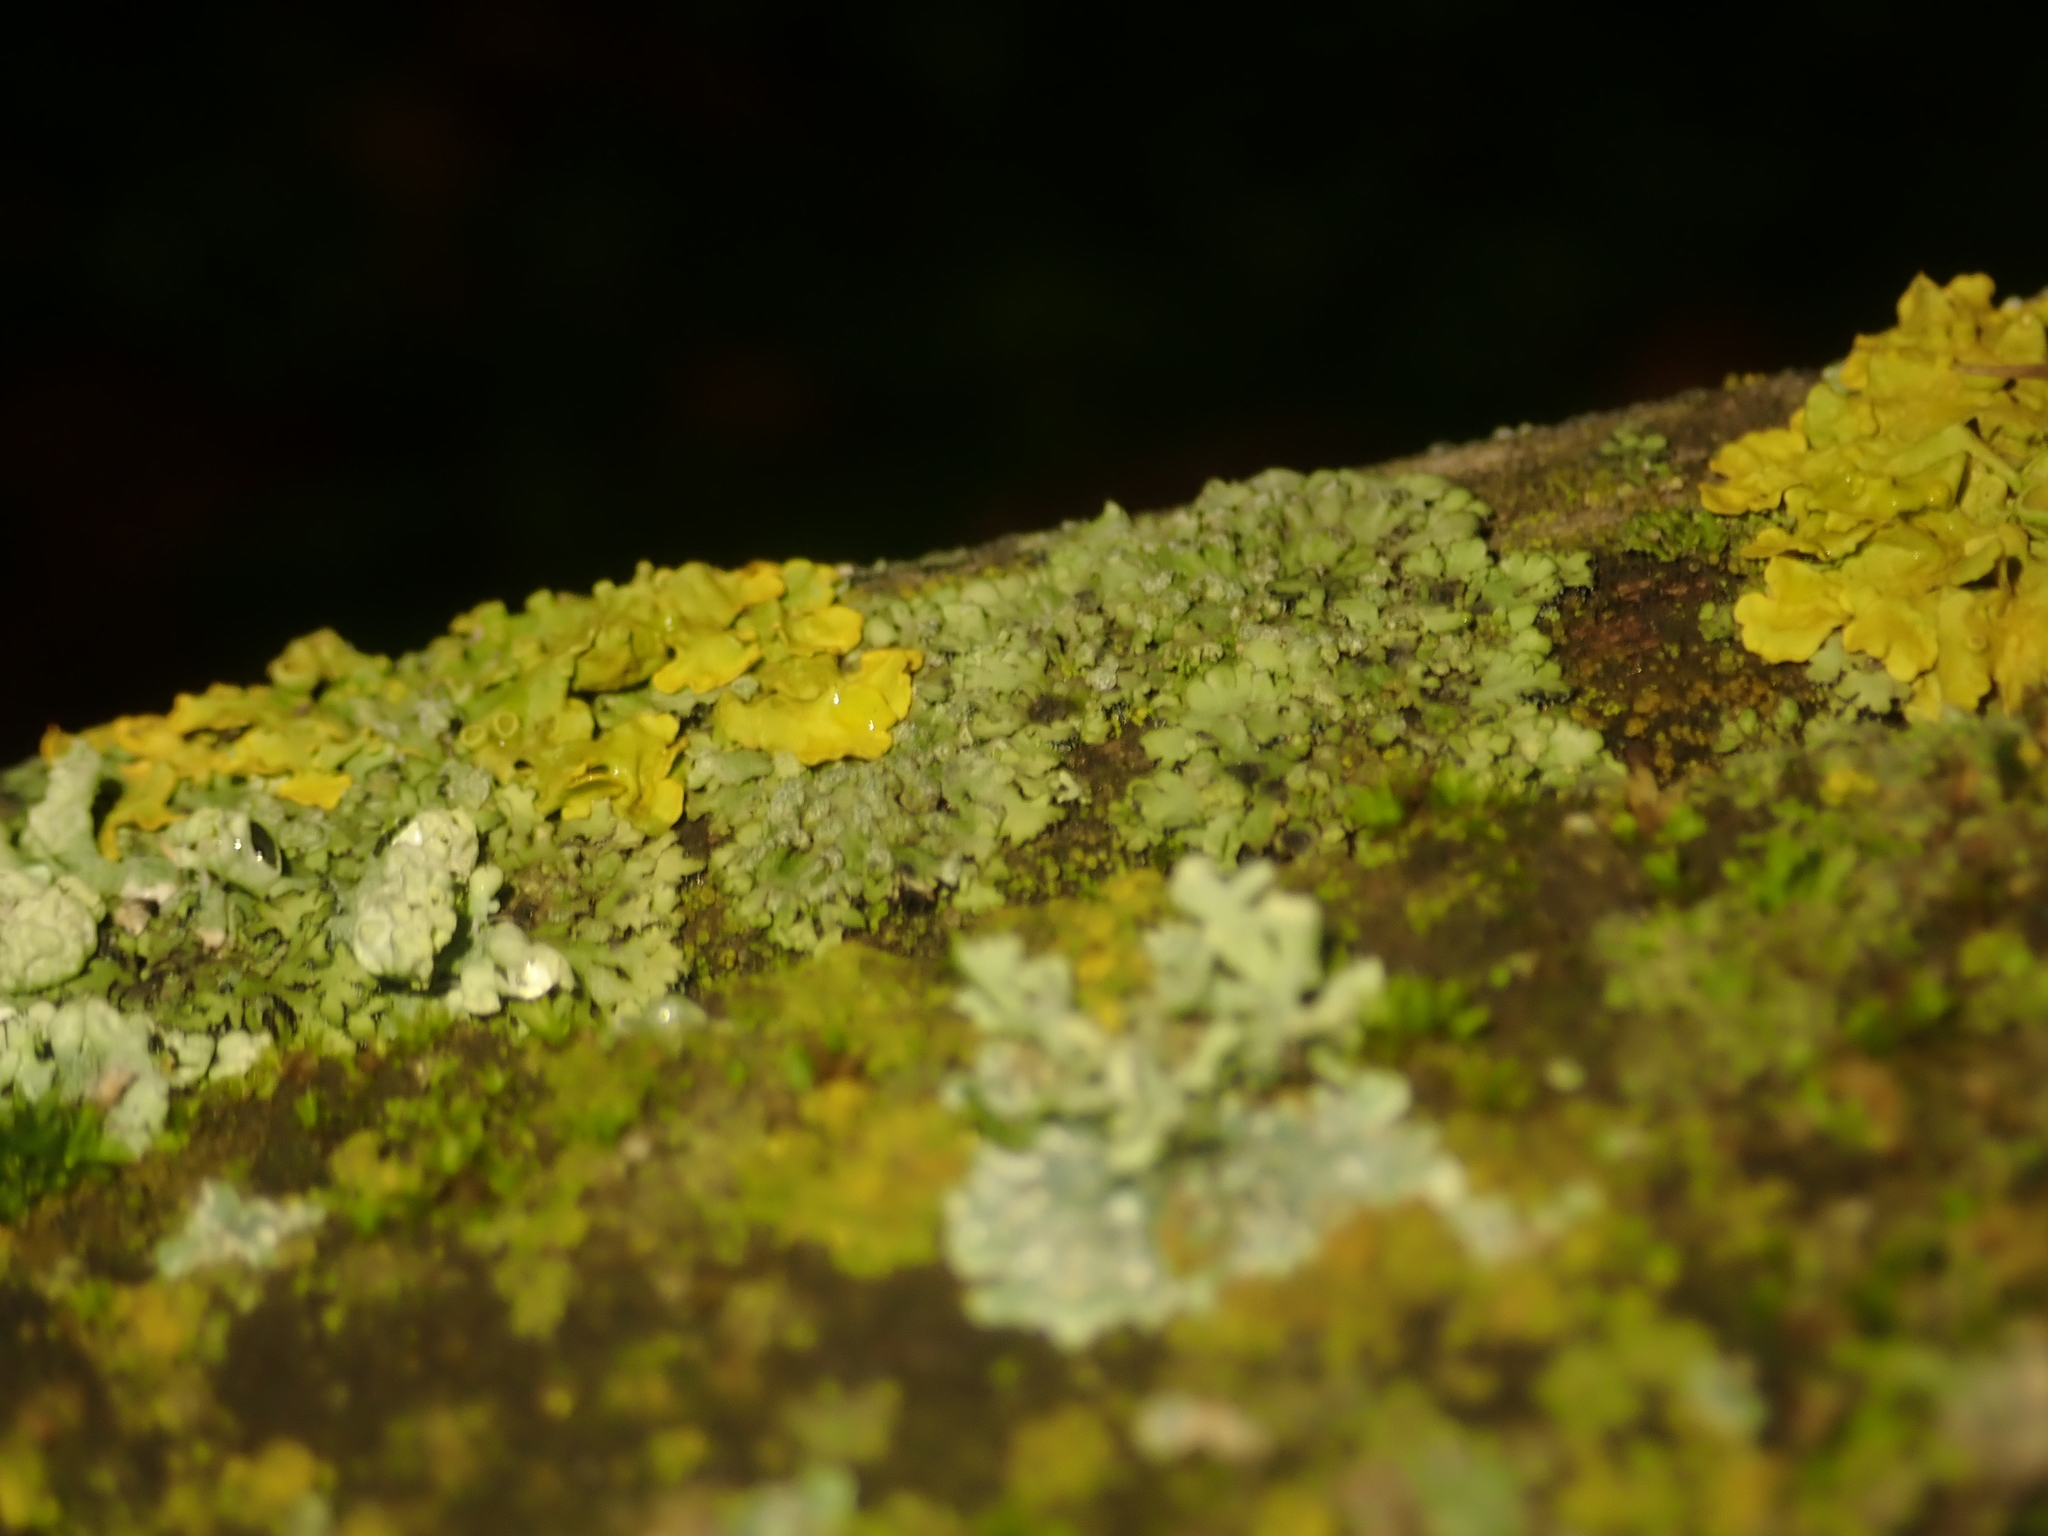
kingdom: Fungi
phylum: Ascomycota
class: Lecanoromycetes
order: Teloschistales
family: Teloschistaceae
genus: Xanthoria
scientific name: Xanthoria parietina
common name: Common orange lichen
